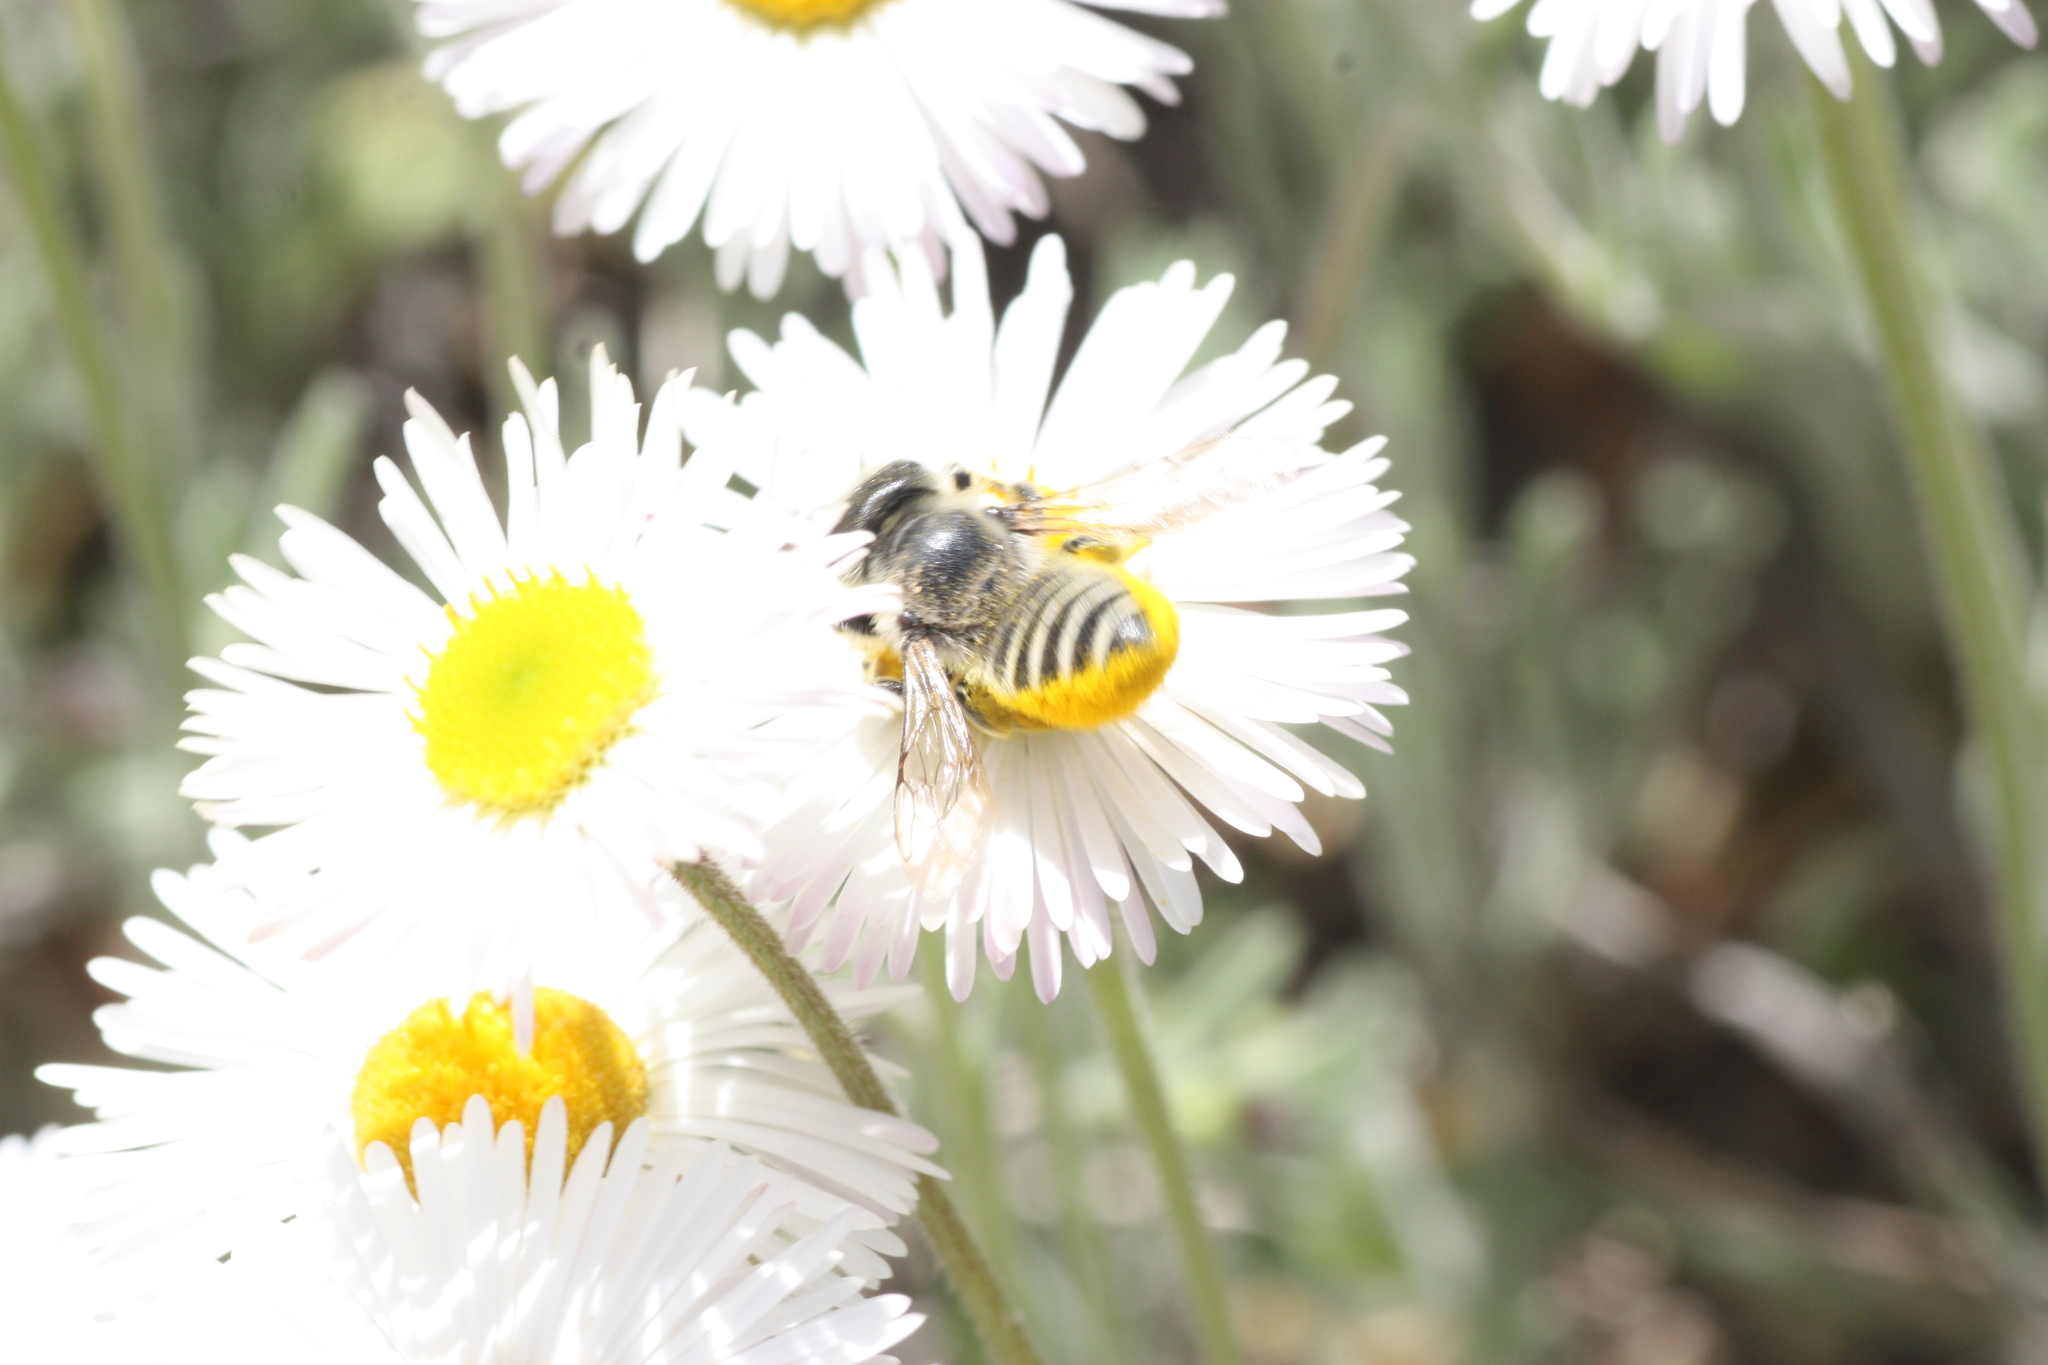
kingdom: Animalia
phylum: Arthropoda
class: Insecta
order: Hymenoptera
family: Megachilidae
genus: Megachile
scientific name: Megachile
